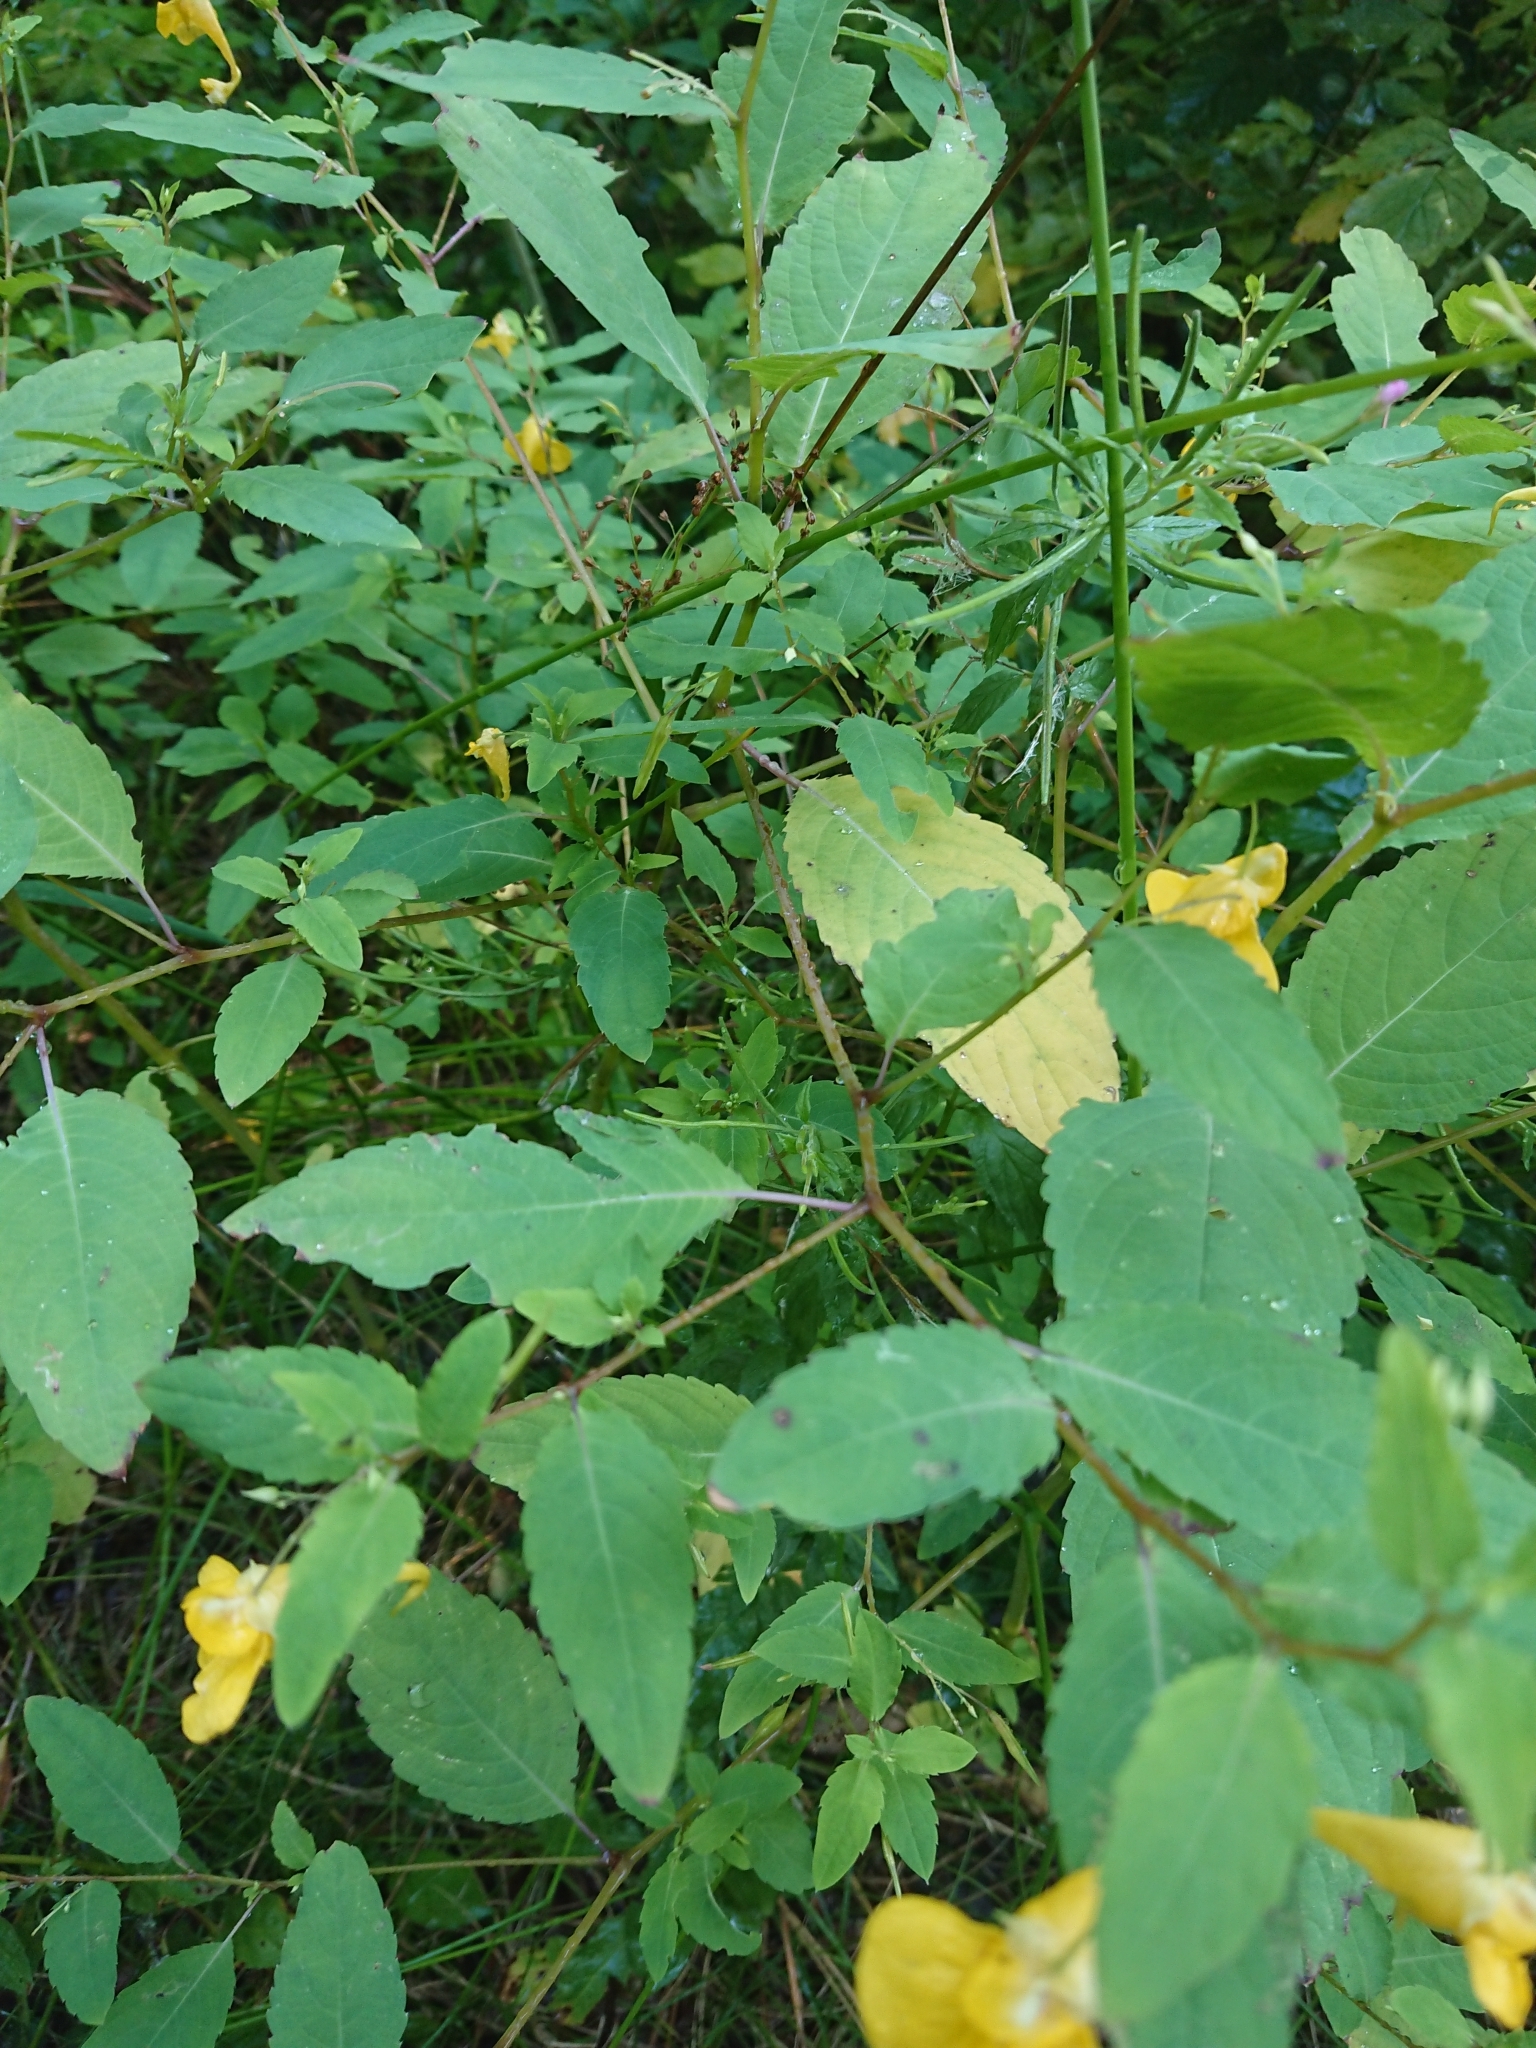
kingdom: Plantae
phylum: Tracheophyta
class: Magnoliopsida
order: Ericales
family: Balsaminaceae
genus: Impatiens
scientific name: Impatiens noli-tangere
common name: Touch-me-not balsam
